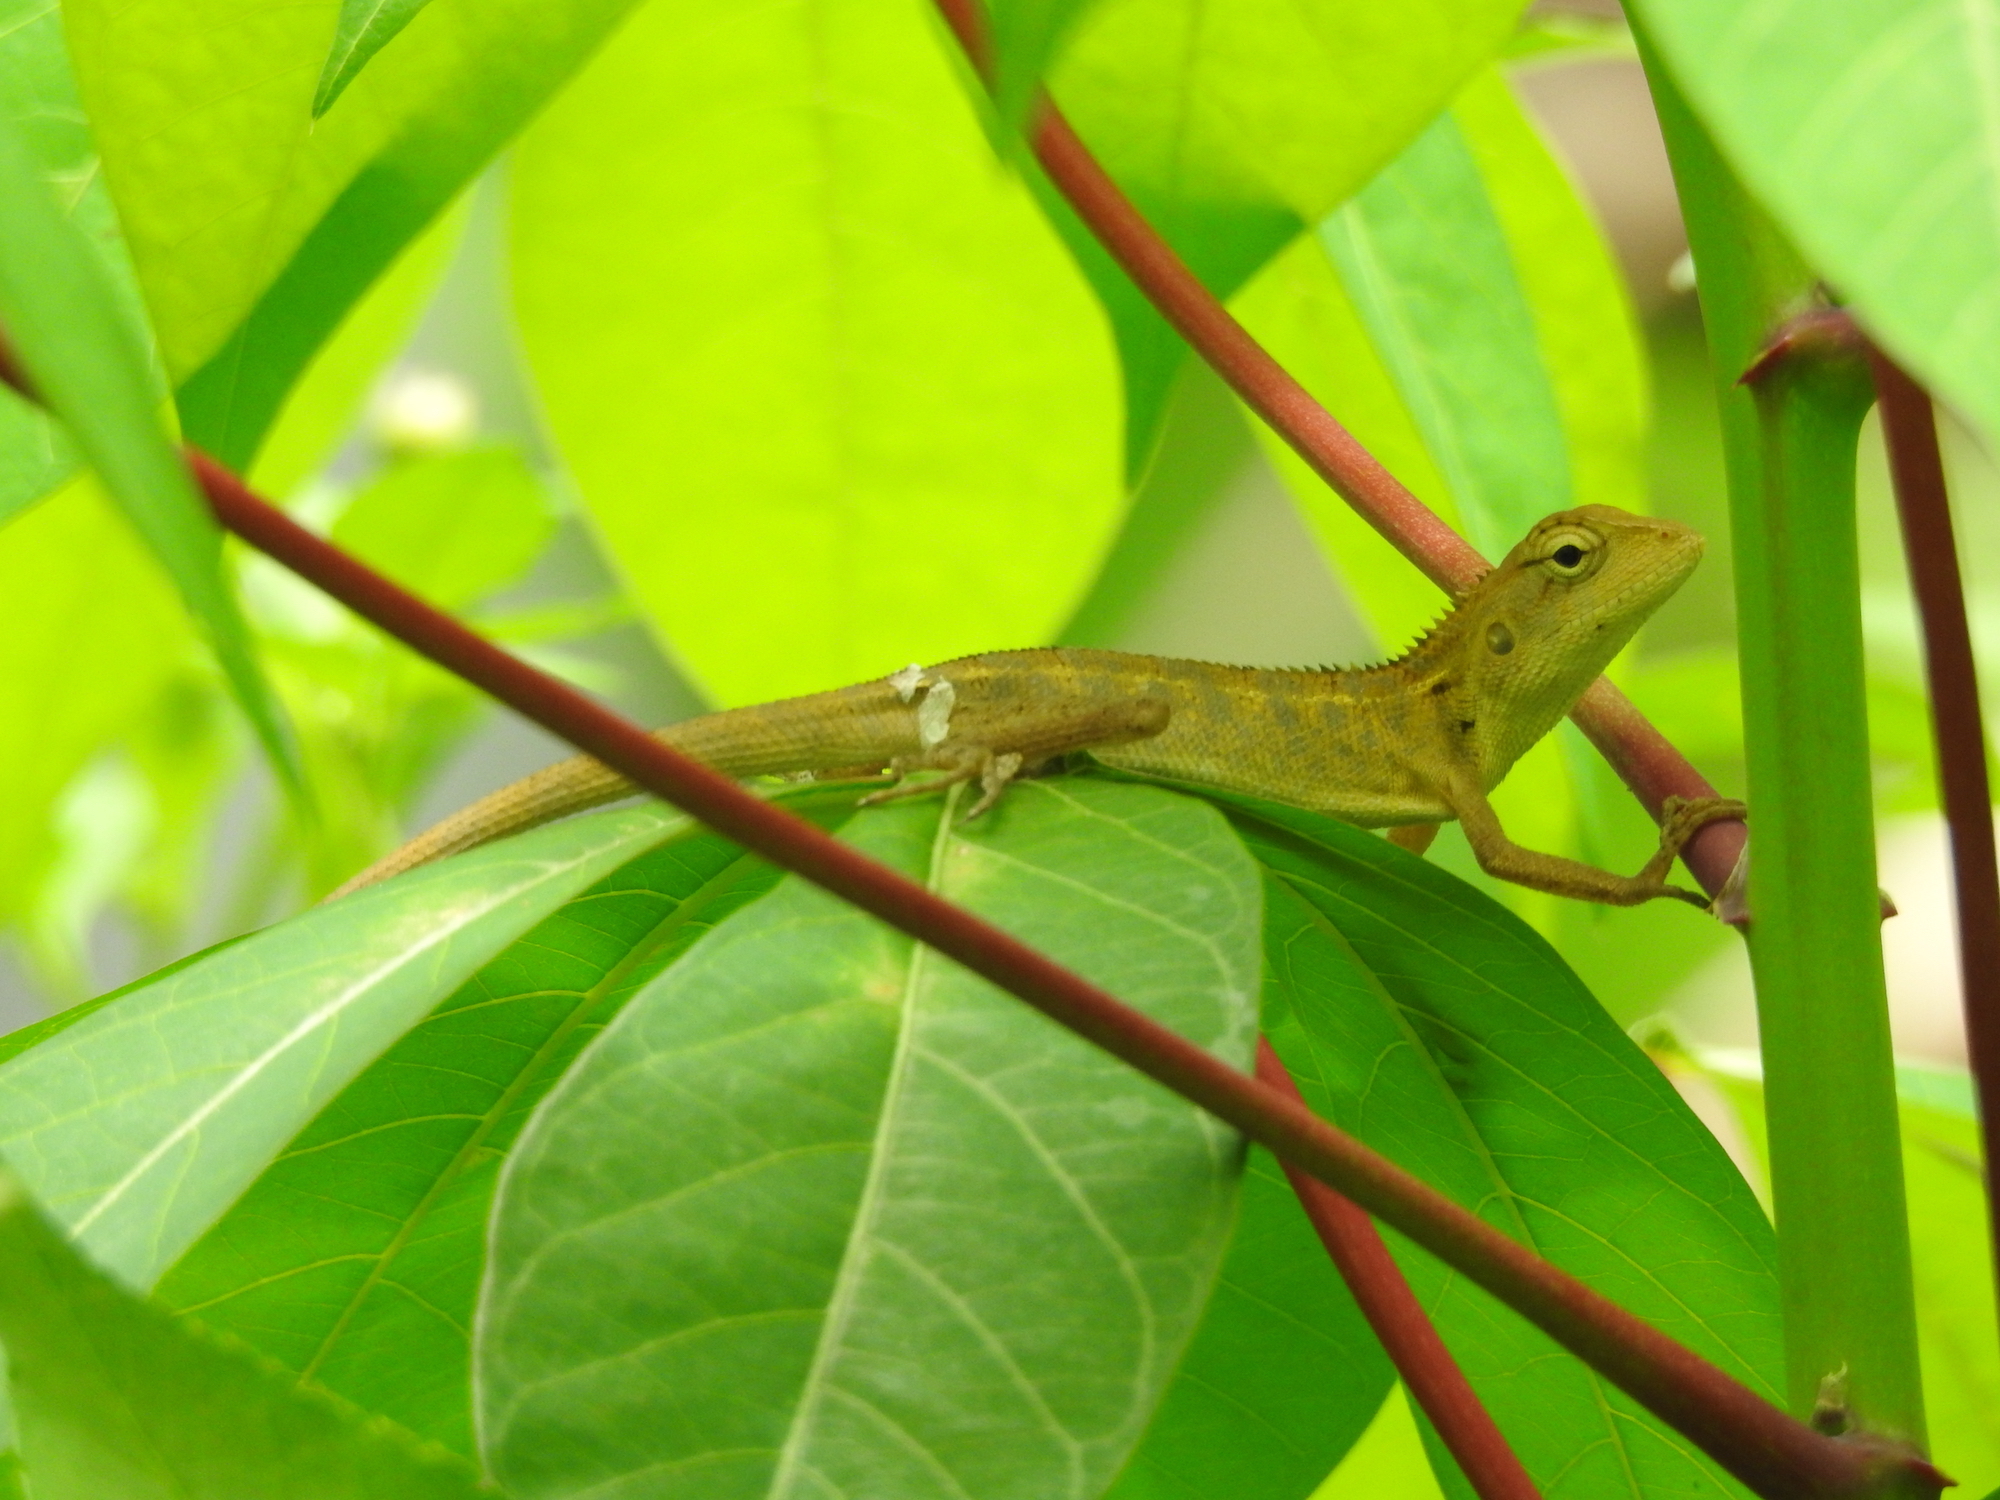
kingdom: Animalia
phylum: Chordata
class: Squamata
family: Agamidae
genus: Calotes
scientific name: Calotes versicolor
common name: Oriental garden lizard
